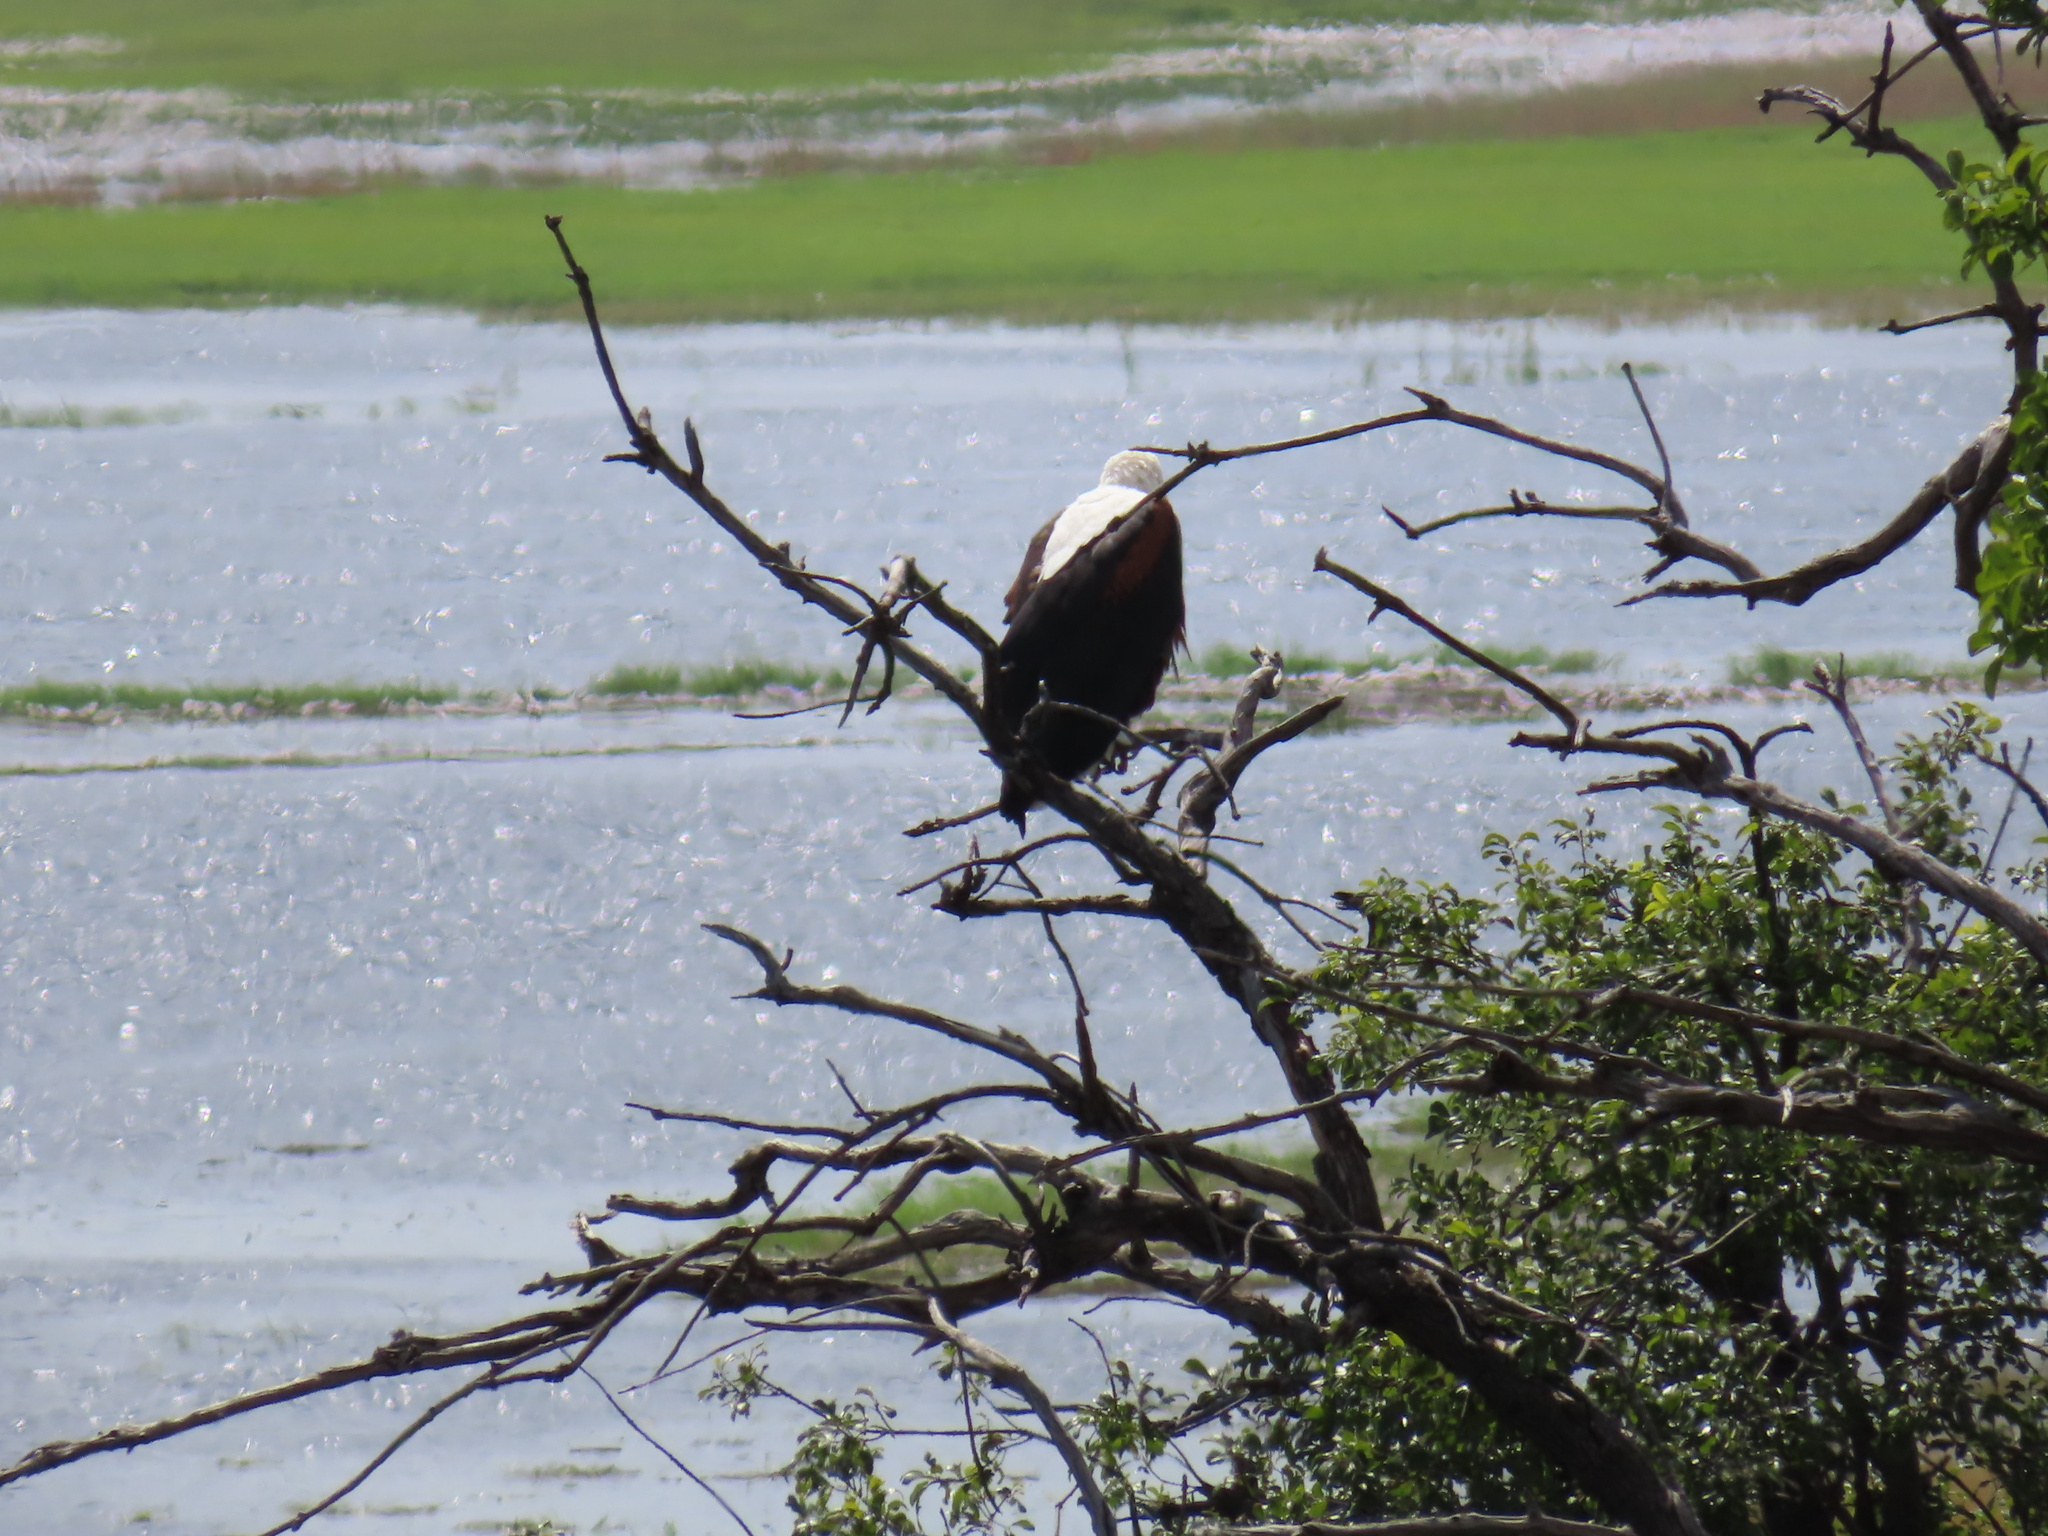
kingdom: Animalia
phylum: Chordata
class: Aves
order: Accipitriformes
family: Accipitridae
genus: Haliaeetus
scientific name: Haliaeetus vocifer
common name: African fish eagle
